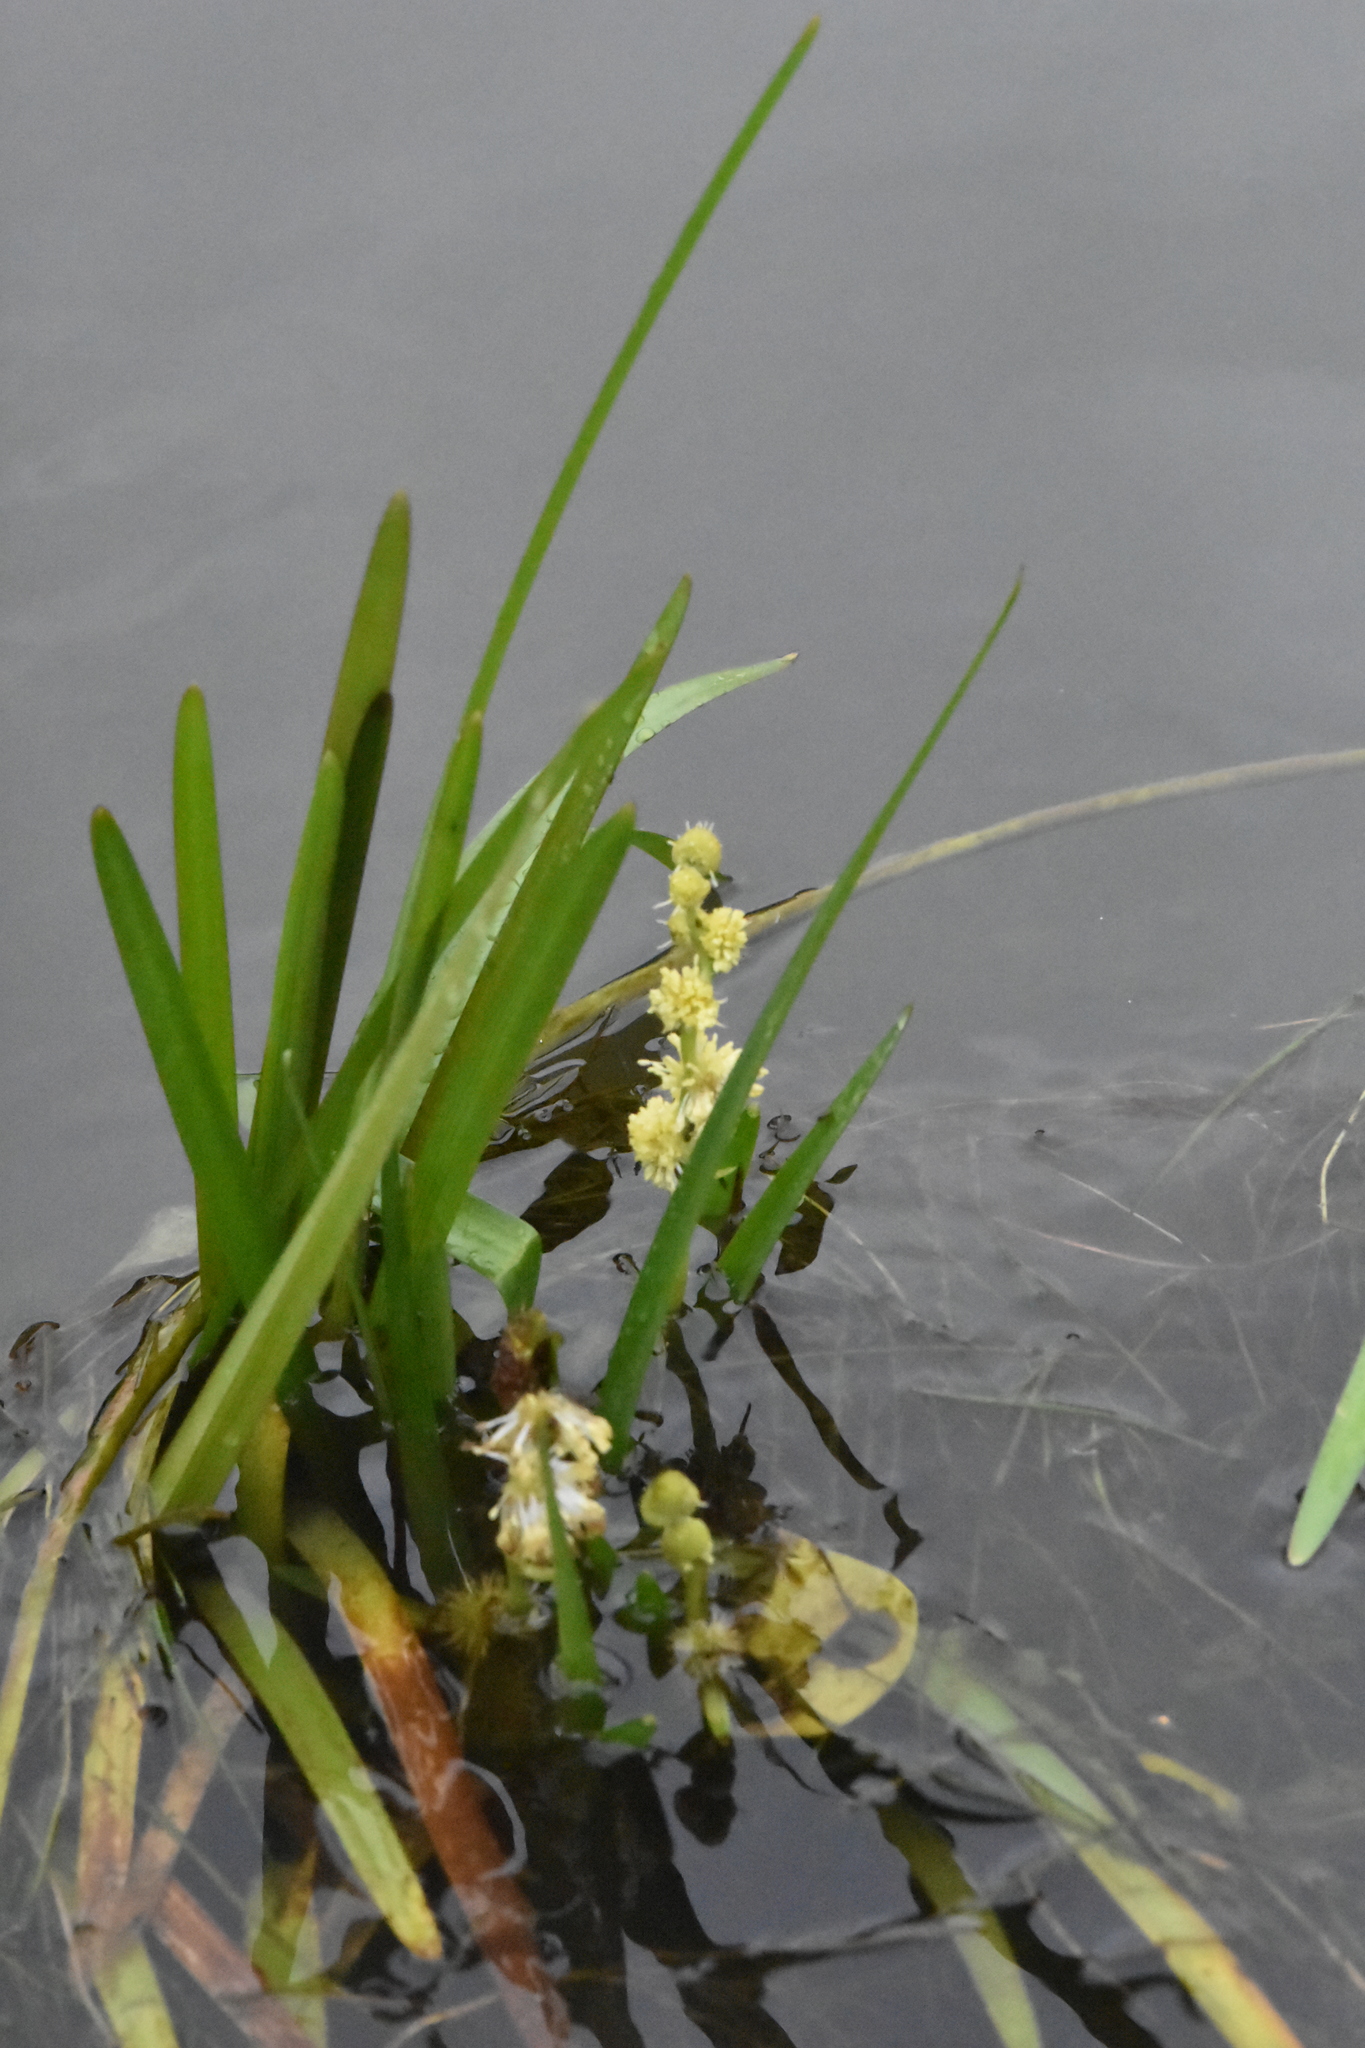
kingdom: Plantae
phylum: Tracheophyta
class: Liliopsida
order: Poales
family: Typhaceae
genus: Sparganium
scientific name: Sparganium emersum
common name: Unbranched bur-reed
